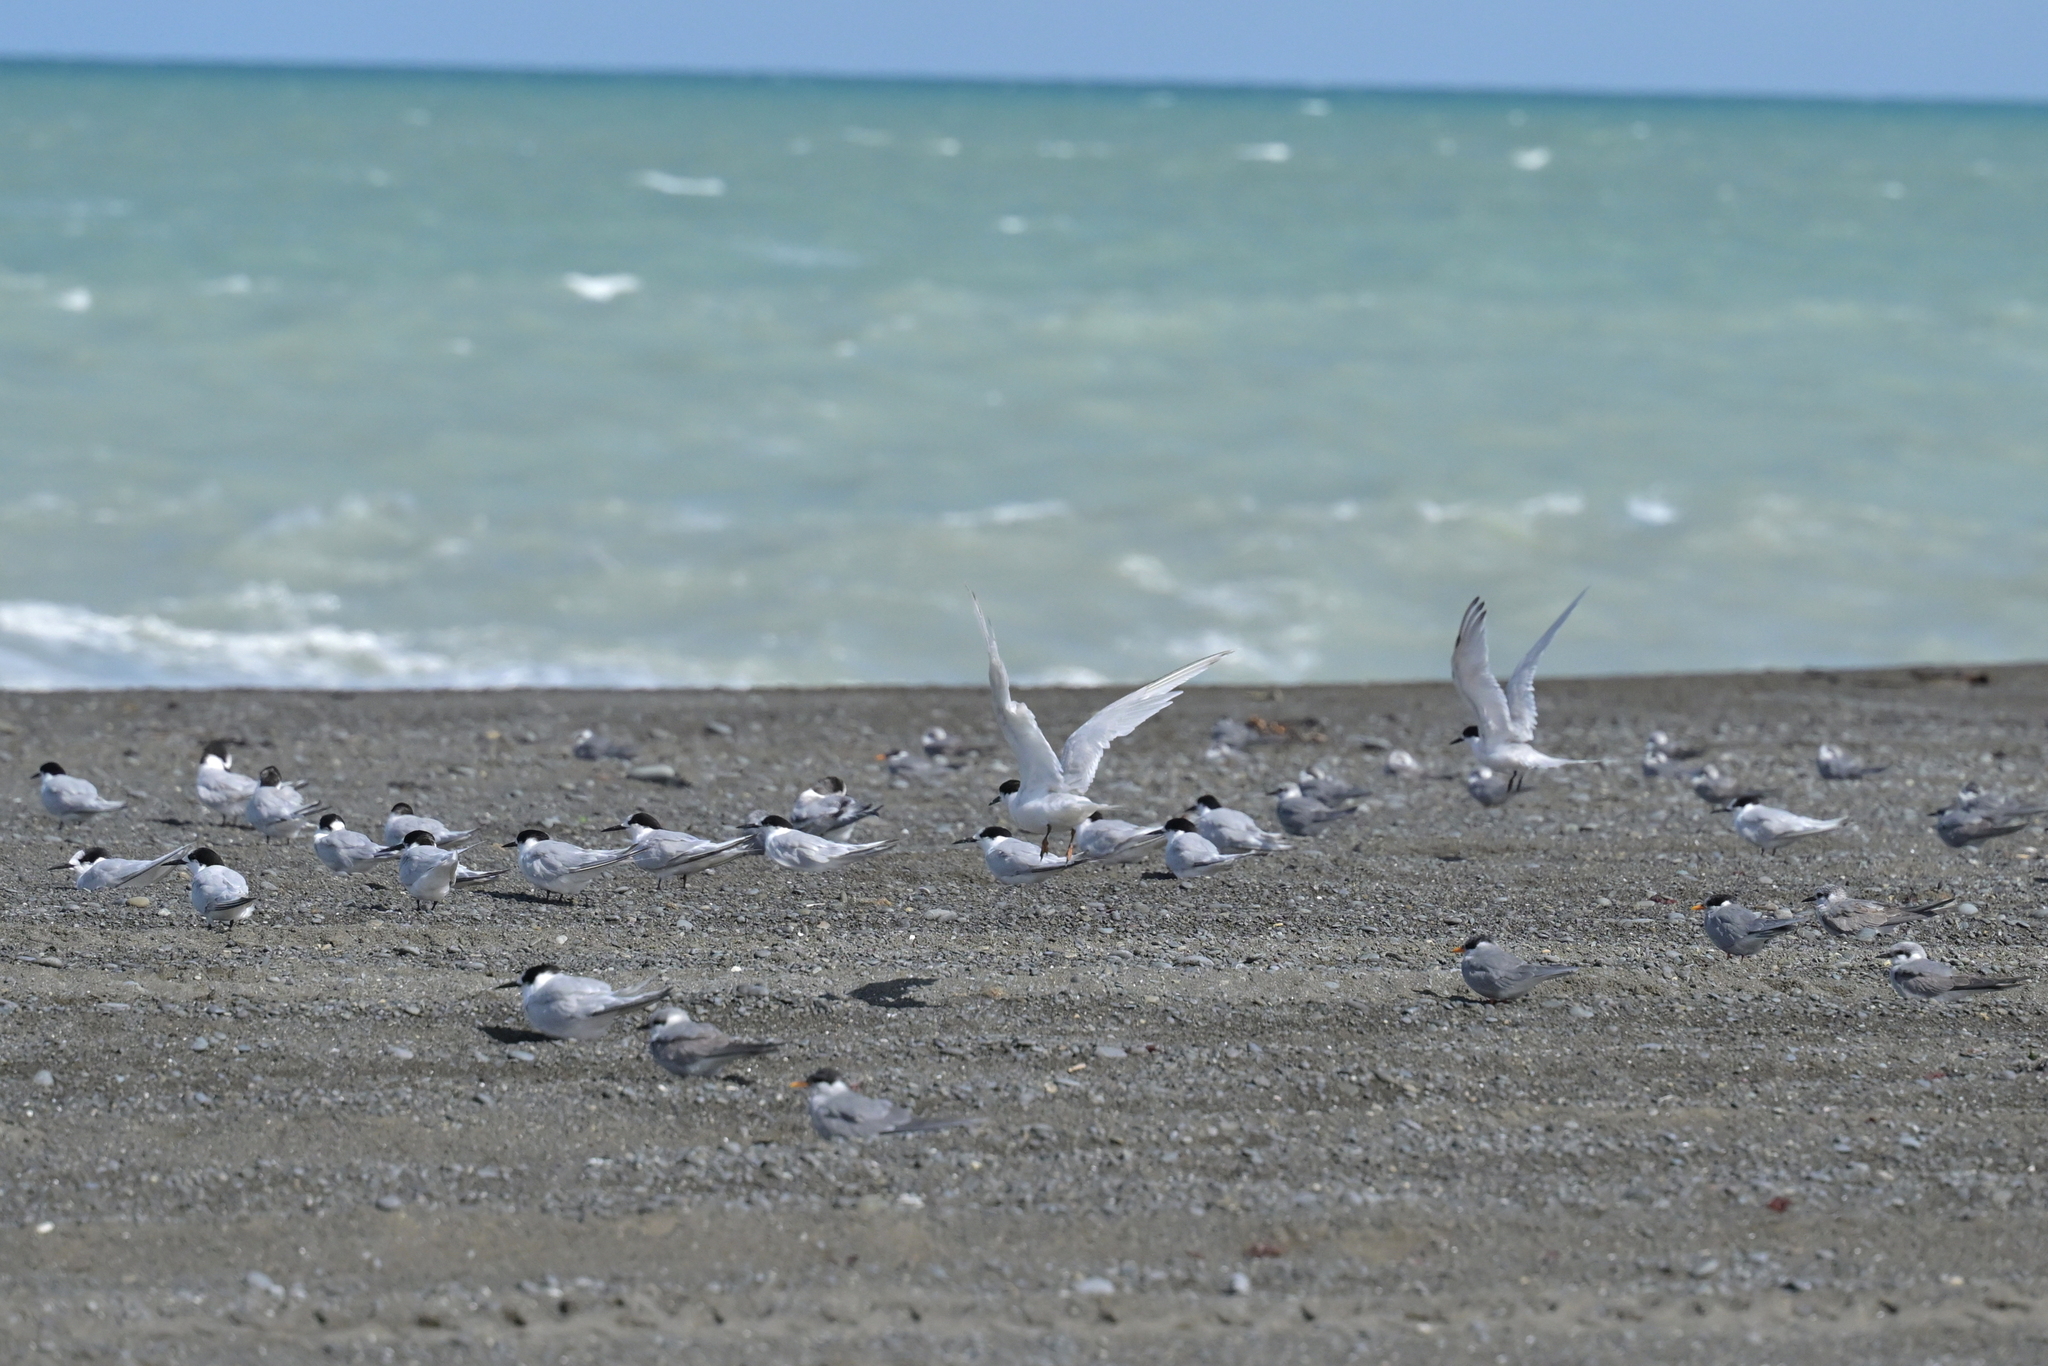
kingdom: Animalia
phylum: Chordata
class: Aves
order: Charadriiformes
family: Laridae
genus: Sterna
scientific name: Sterna striata
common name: White-fronted tern
